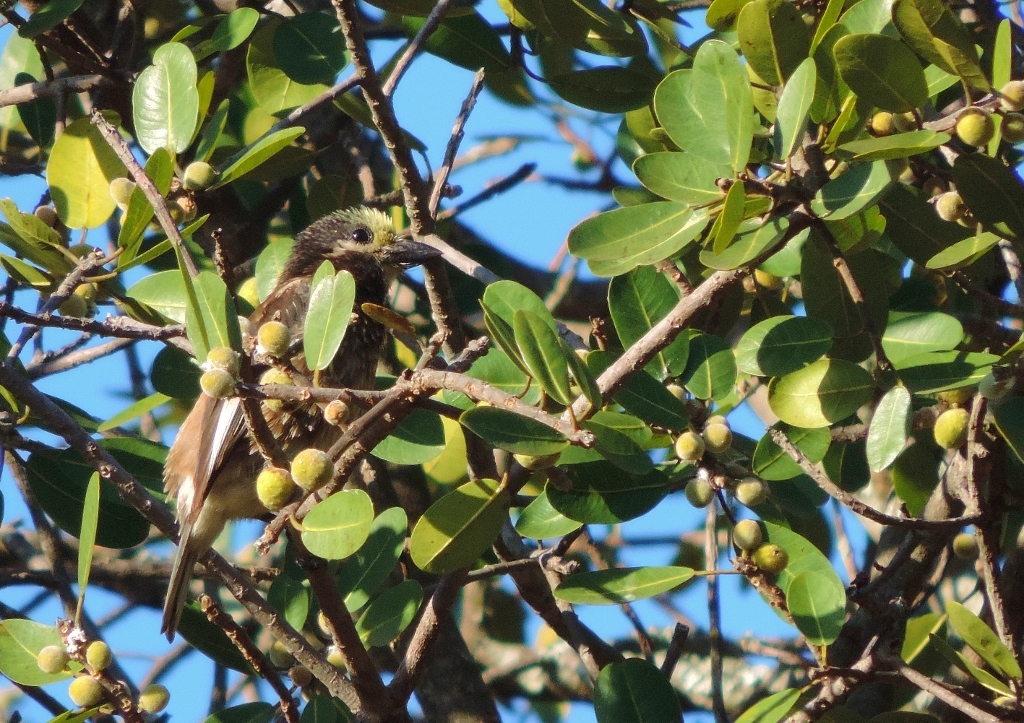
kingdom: Animalia
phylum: Chordata
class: Aves
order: Piciformes
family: Lybiidae
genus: Stactolaema
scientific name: Stactolaema whytii
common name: Whyte's barbet
